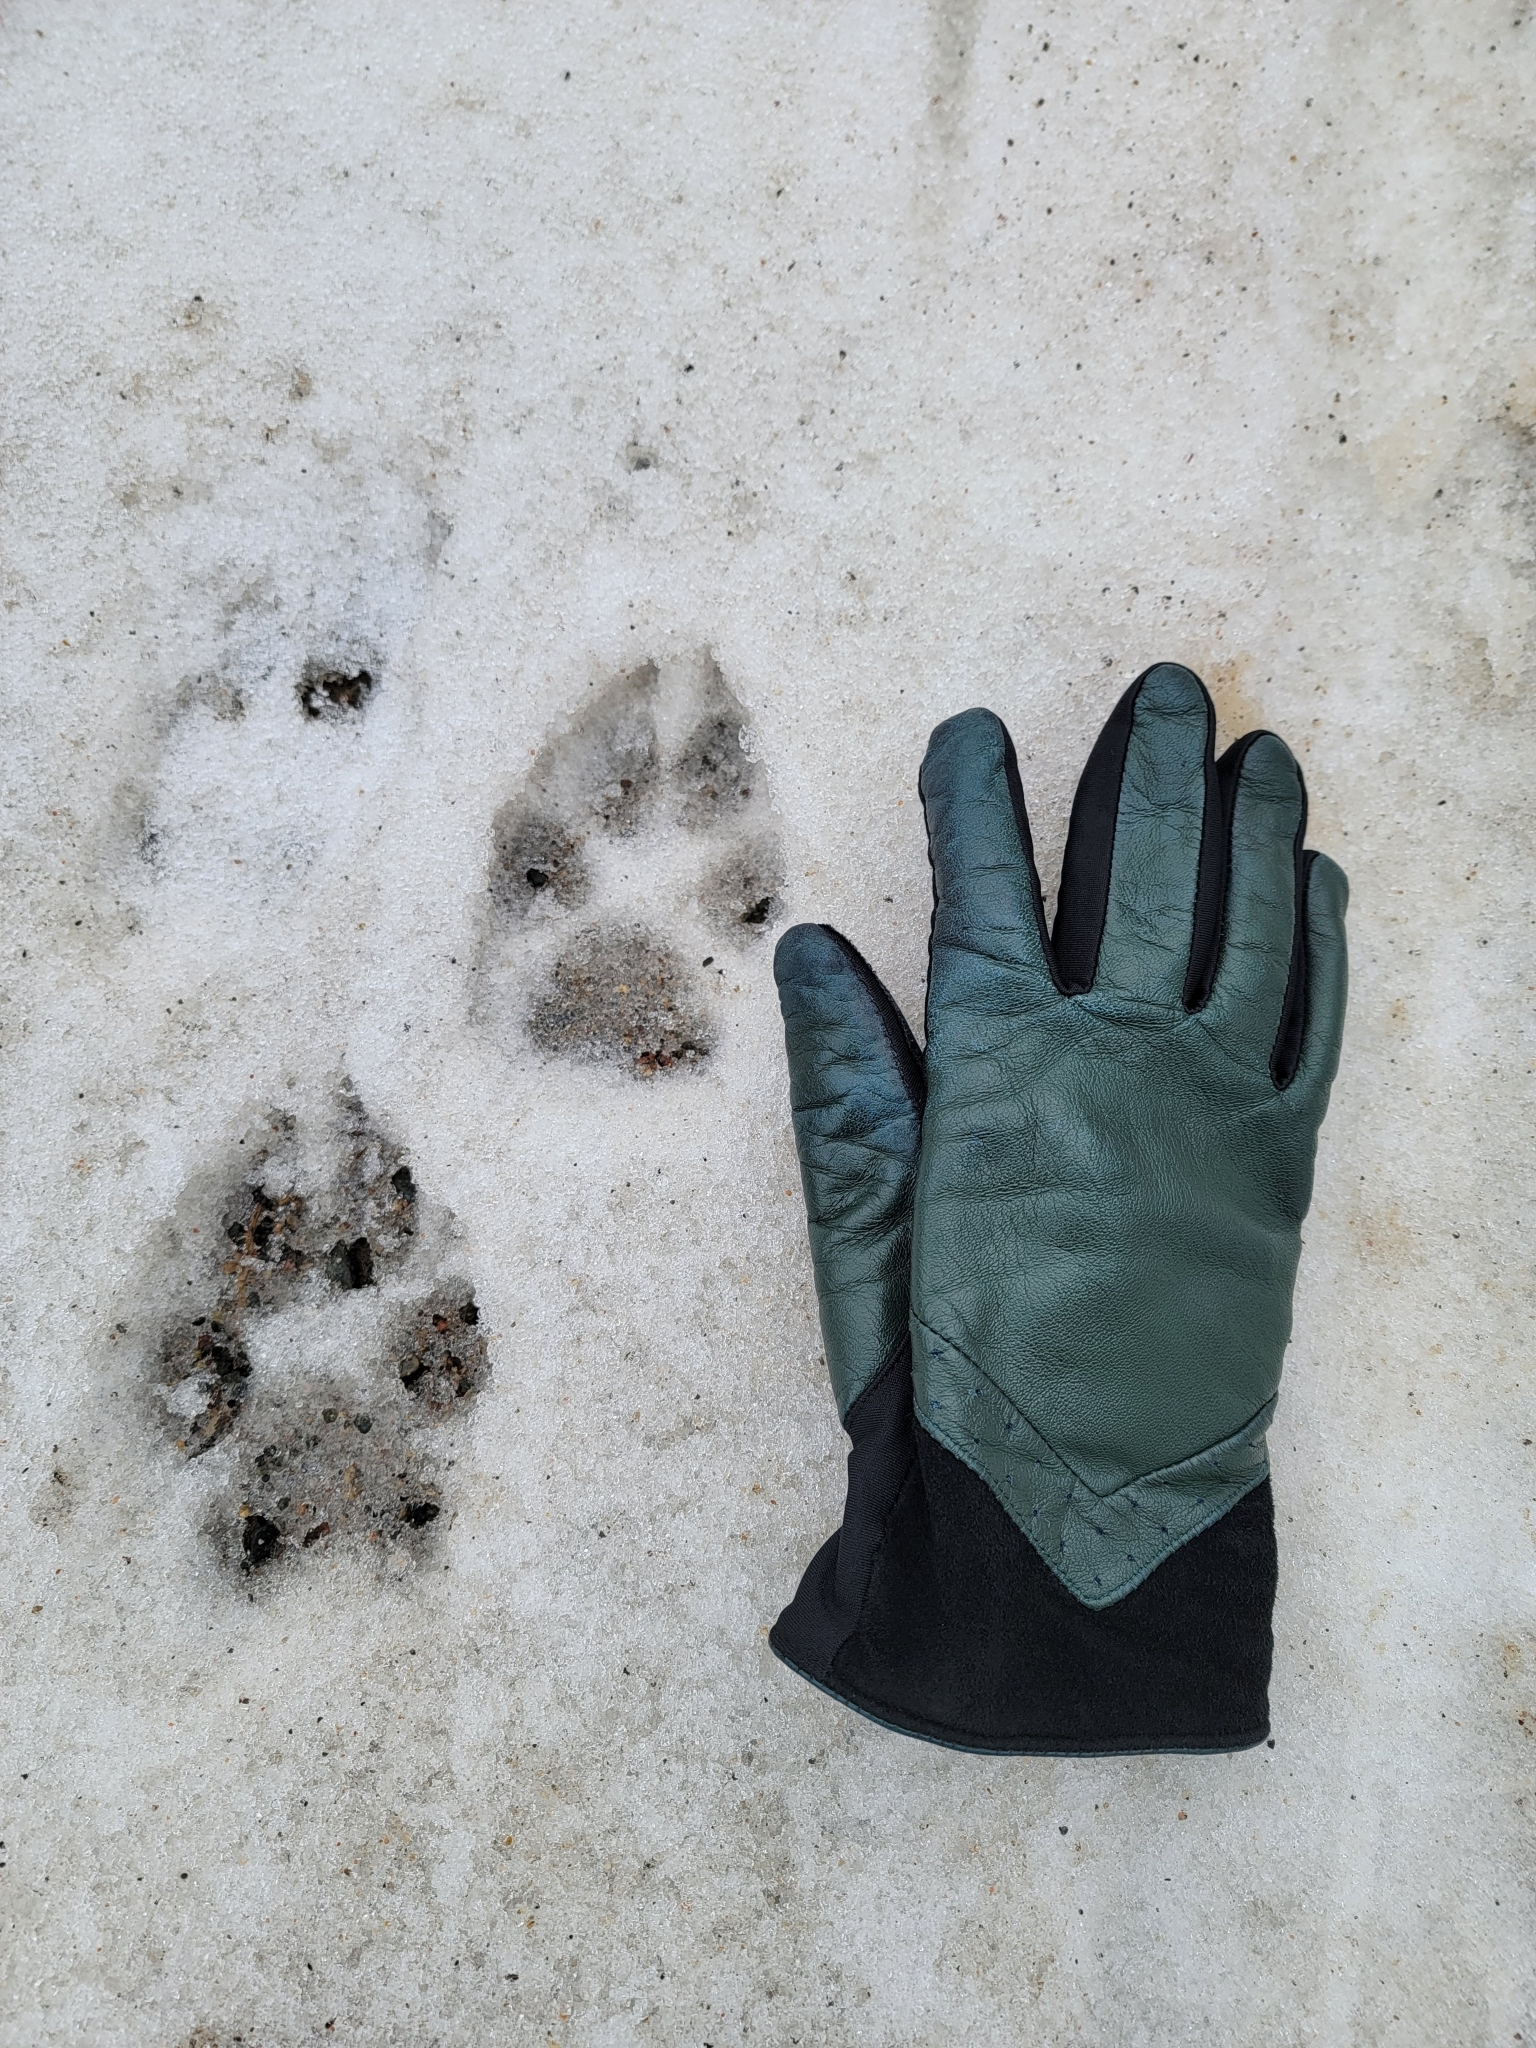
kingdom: Animalia
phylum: Chordata
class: Mammalia
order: Carnivora
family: Canidae
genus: Canis
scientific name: Canis lupus
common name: Gray wolf
